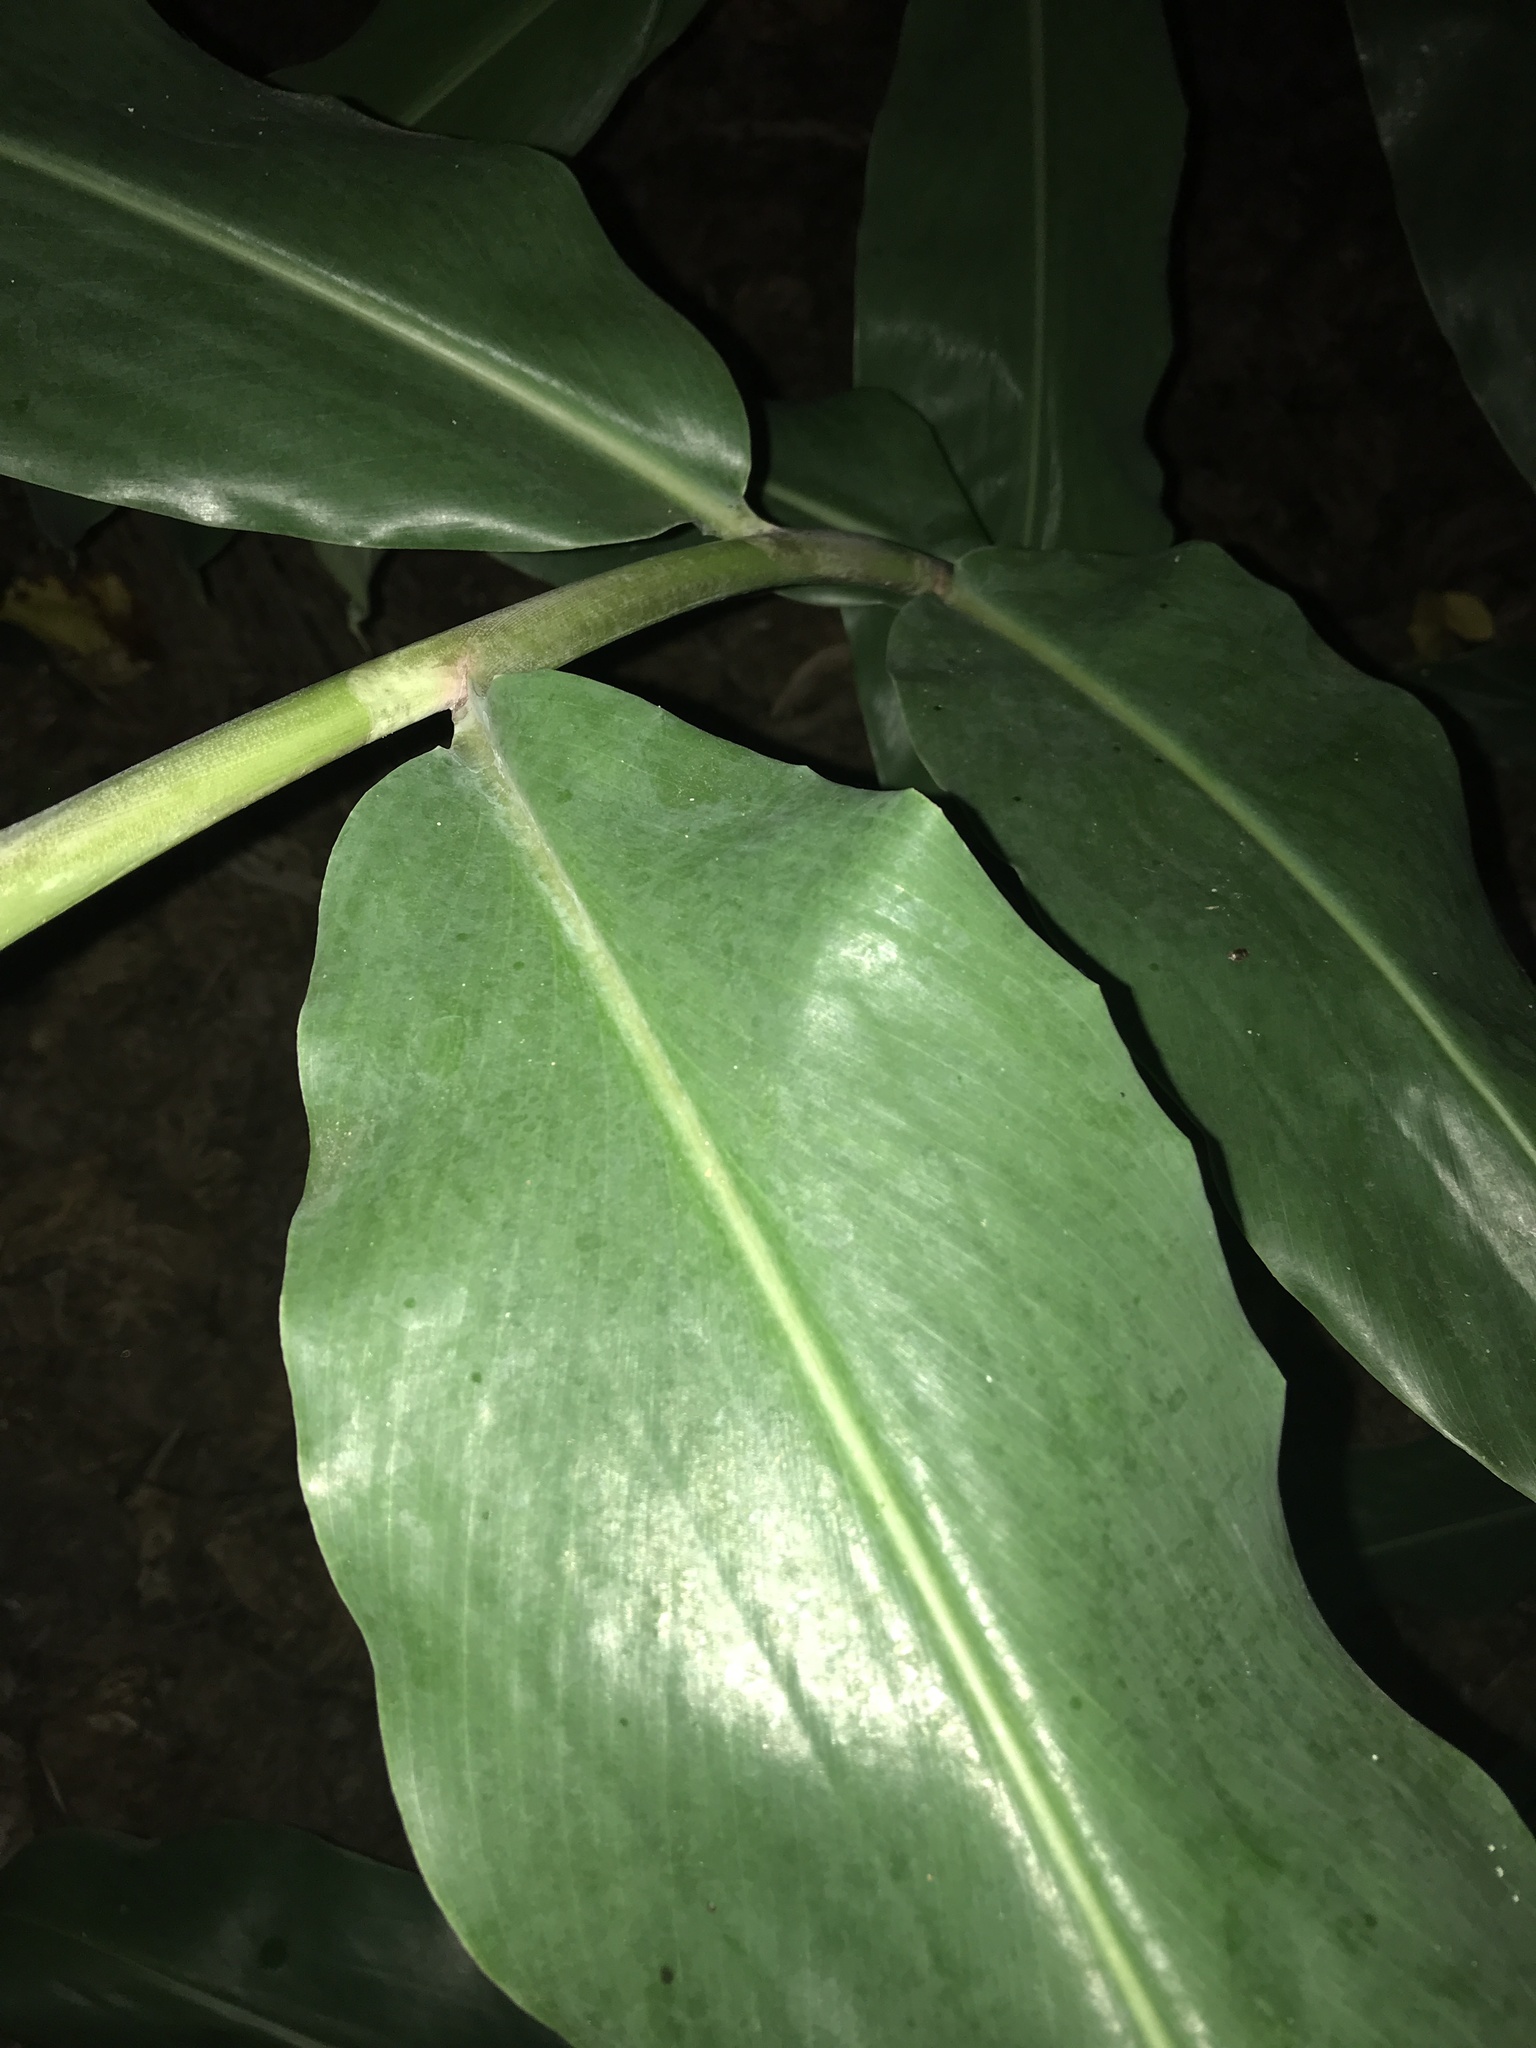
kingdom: Plantae
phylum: Tracheophyta
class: Liliopsida
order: Zingiberales
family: Zingiberaceae
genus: Hedychium
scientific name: Hedychium gardnerianum
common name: Himalayan ginger
